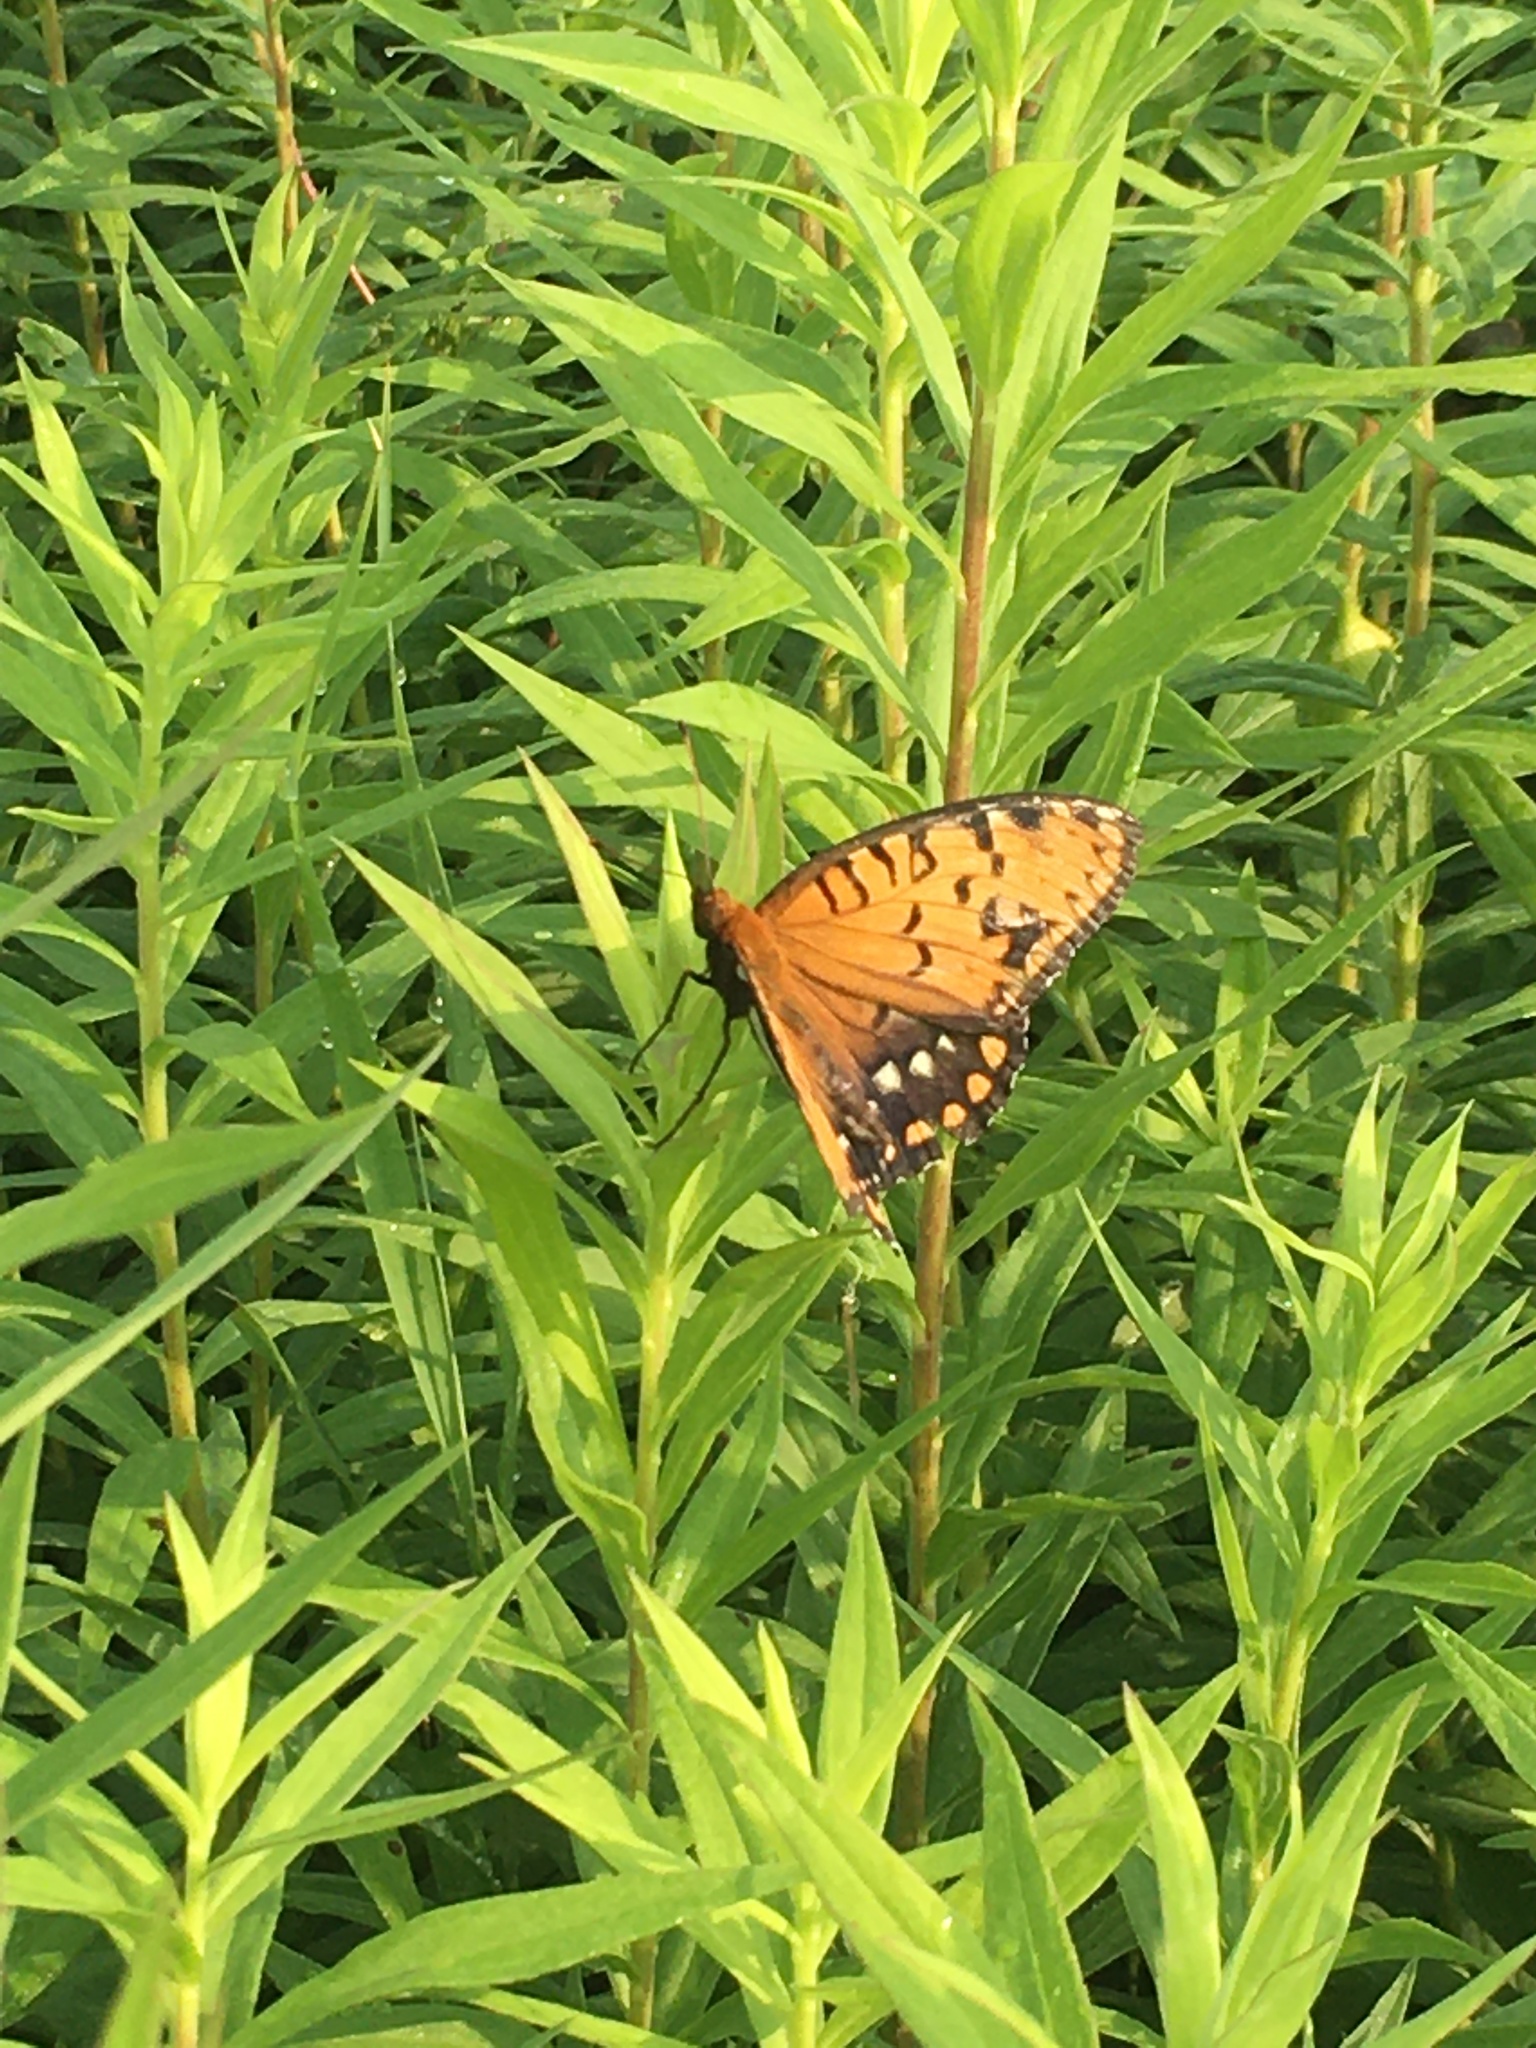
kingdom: Animalia
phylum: Arthropoda
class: Insecta
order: Lepidoptera
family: Nymphalidae
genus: Speyeria
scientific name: Speyeria idalia
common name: Regal fritillary
